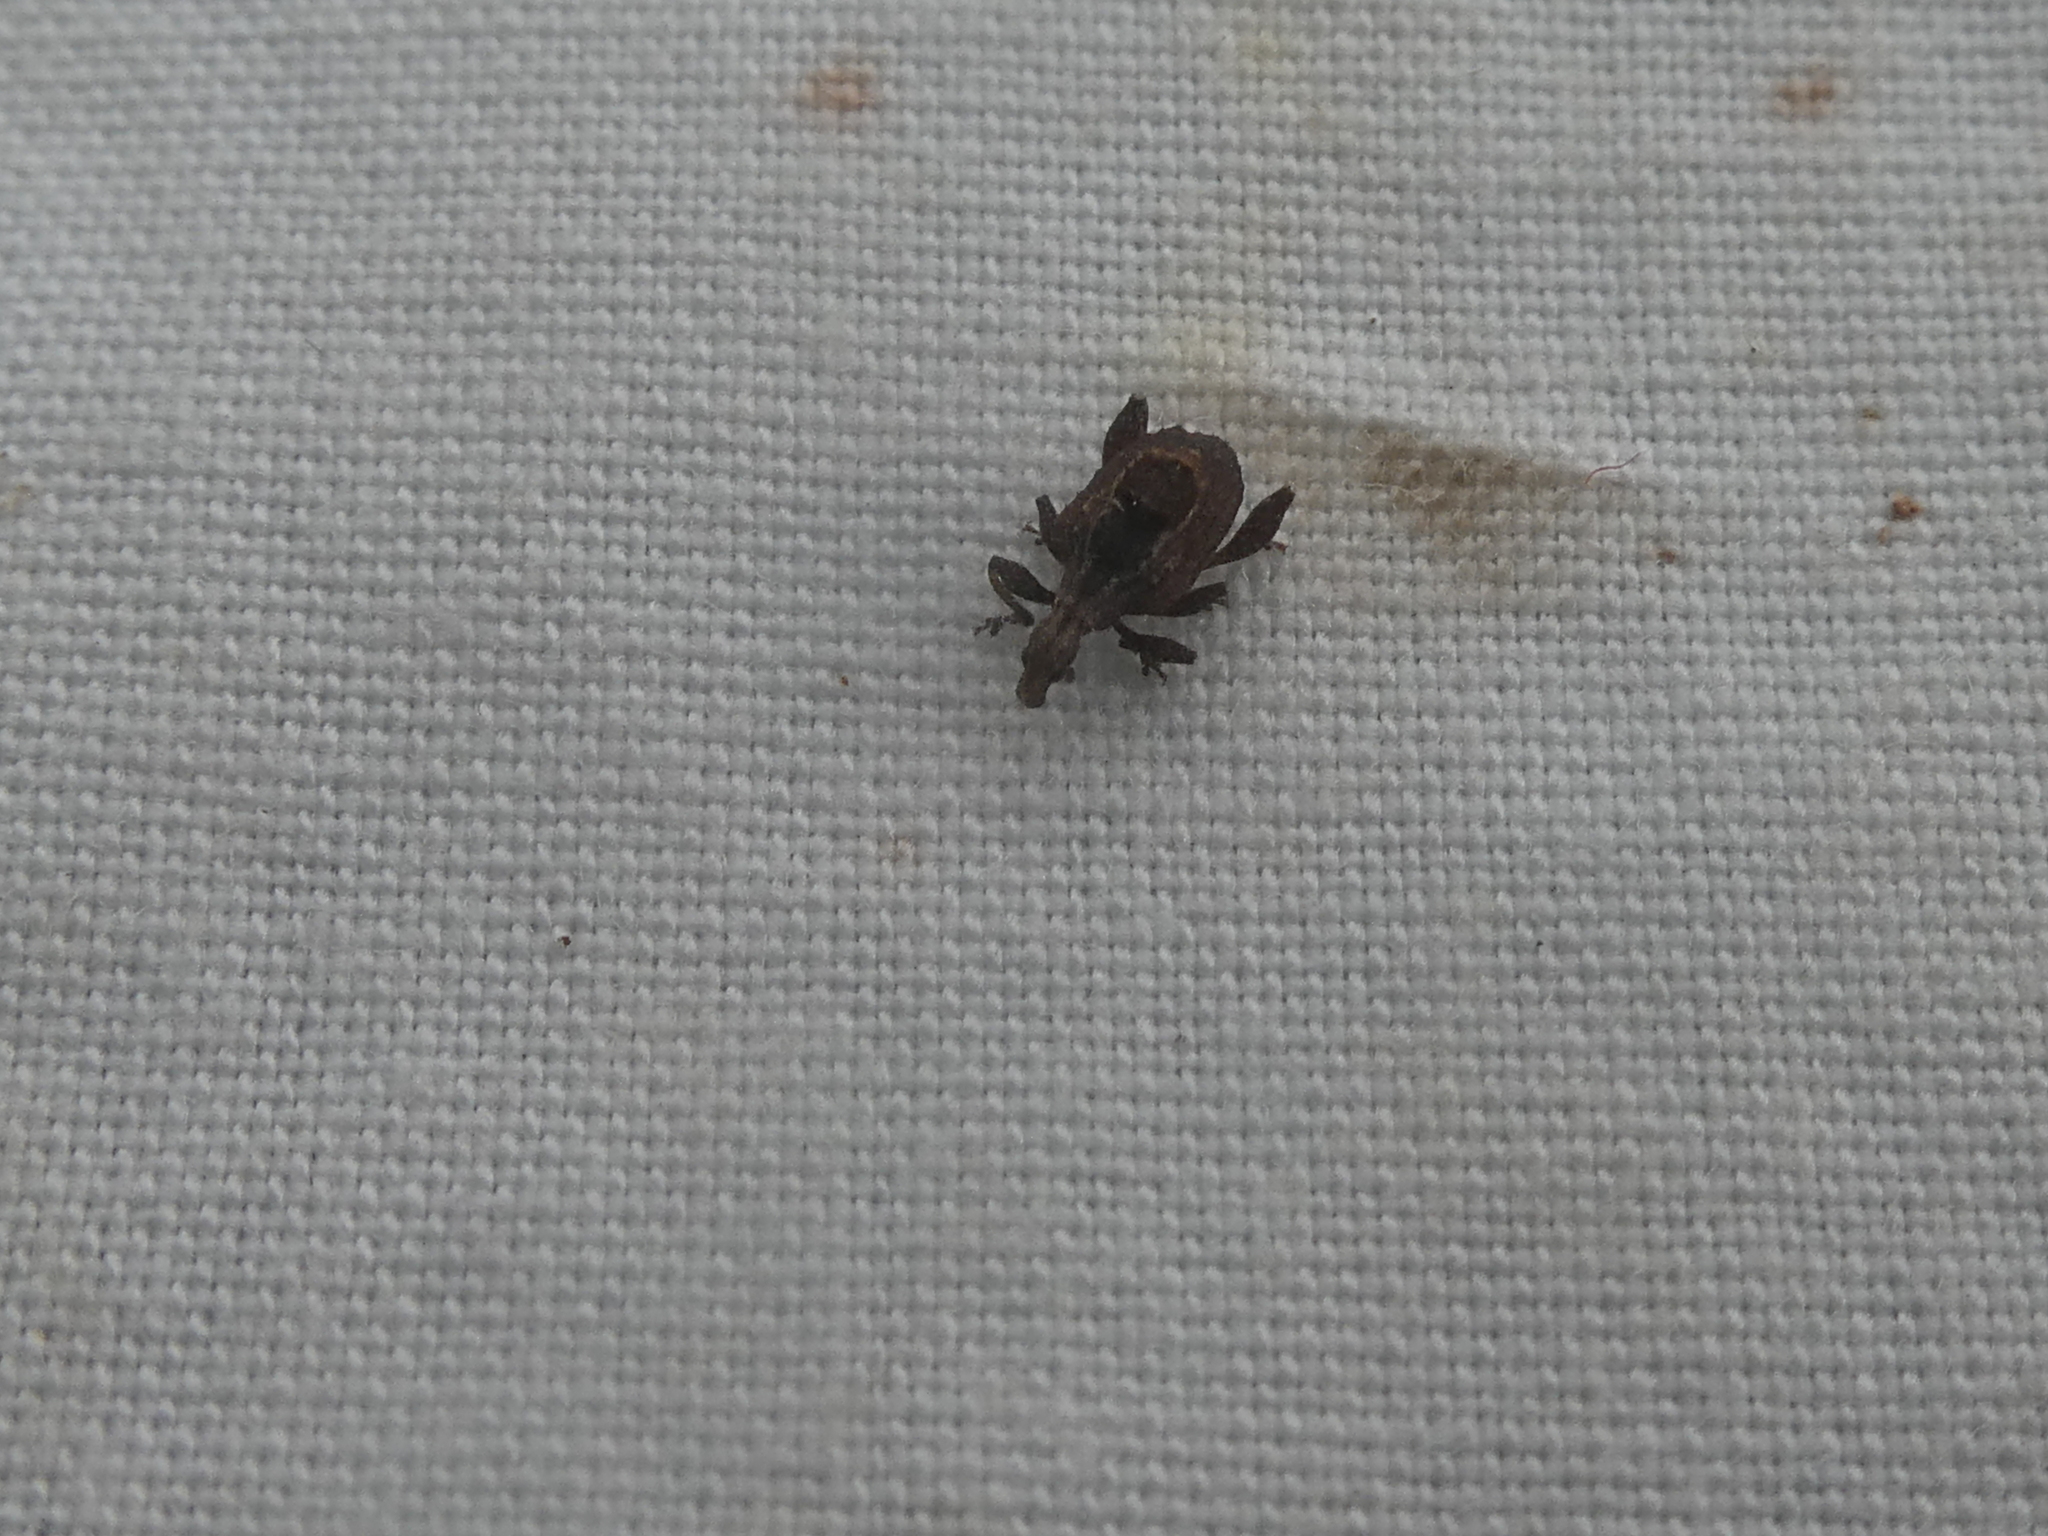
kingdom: Animalia
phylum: Arthropoda
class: Insecta
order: Coleoptera
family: Curculionidae
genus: Stephanorrhynchus
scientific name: Stephanorrhynchus crassus
